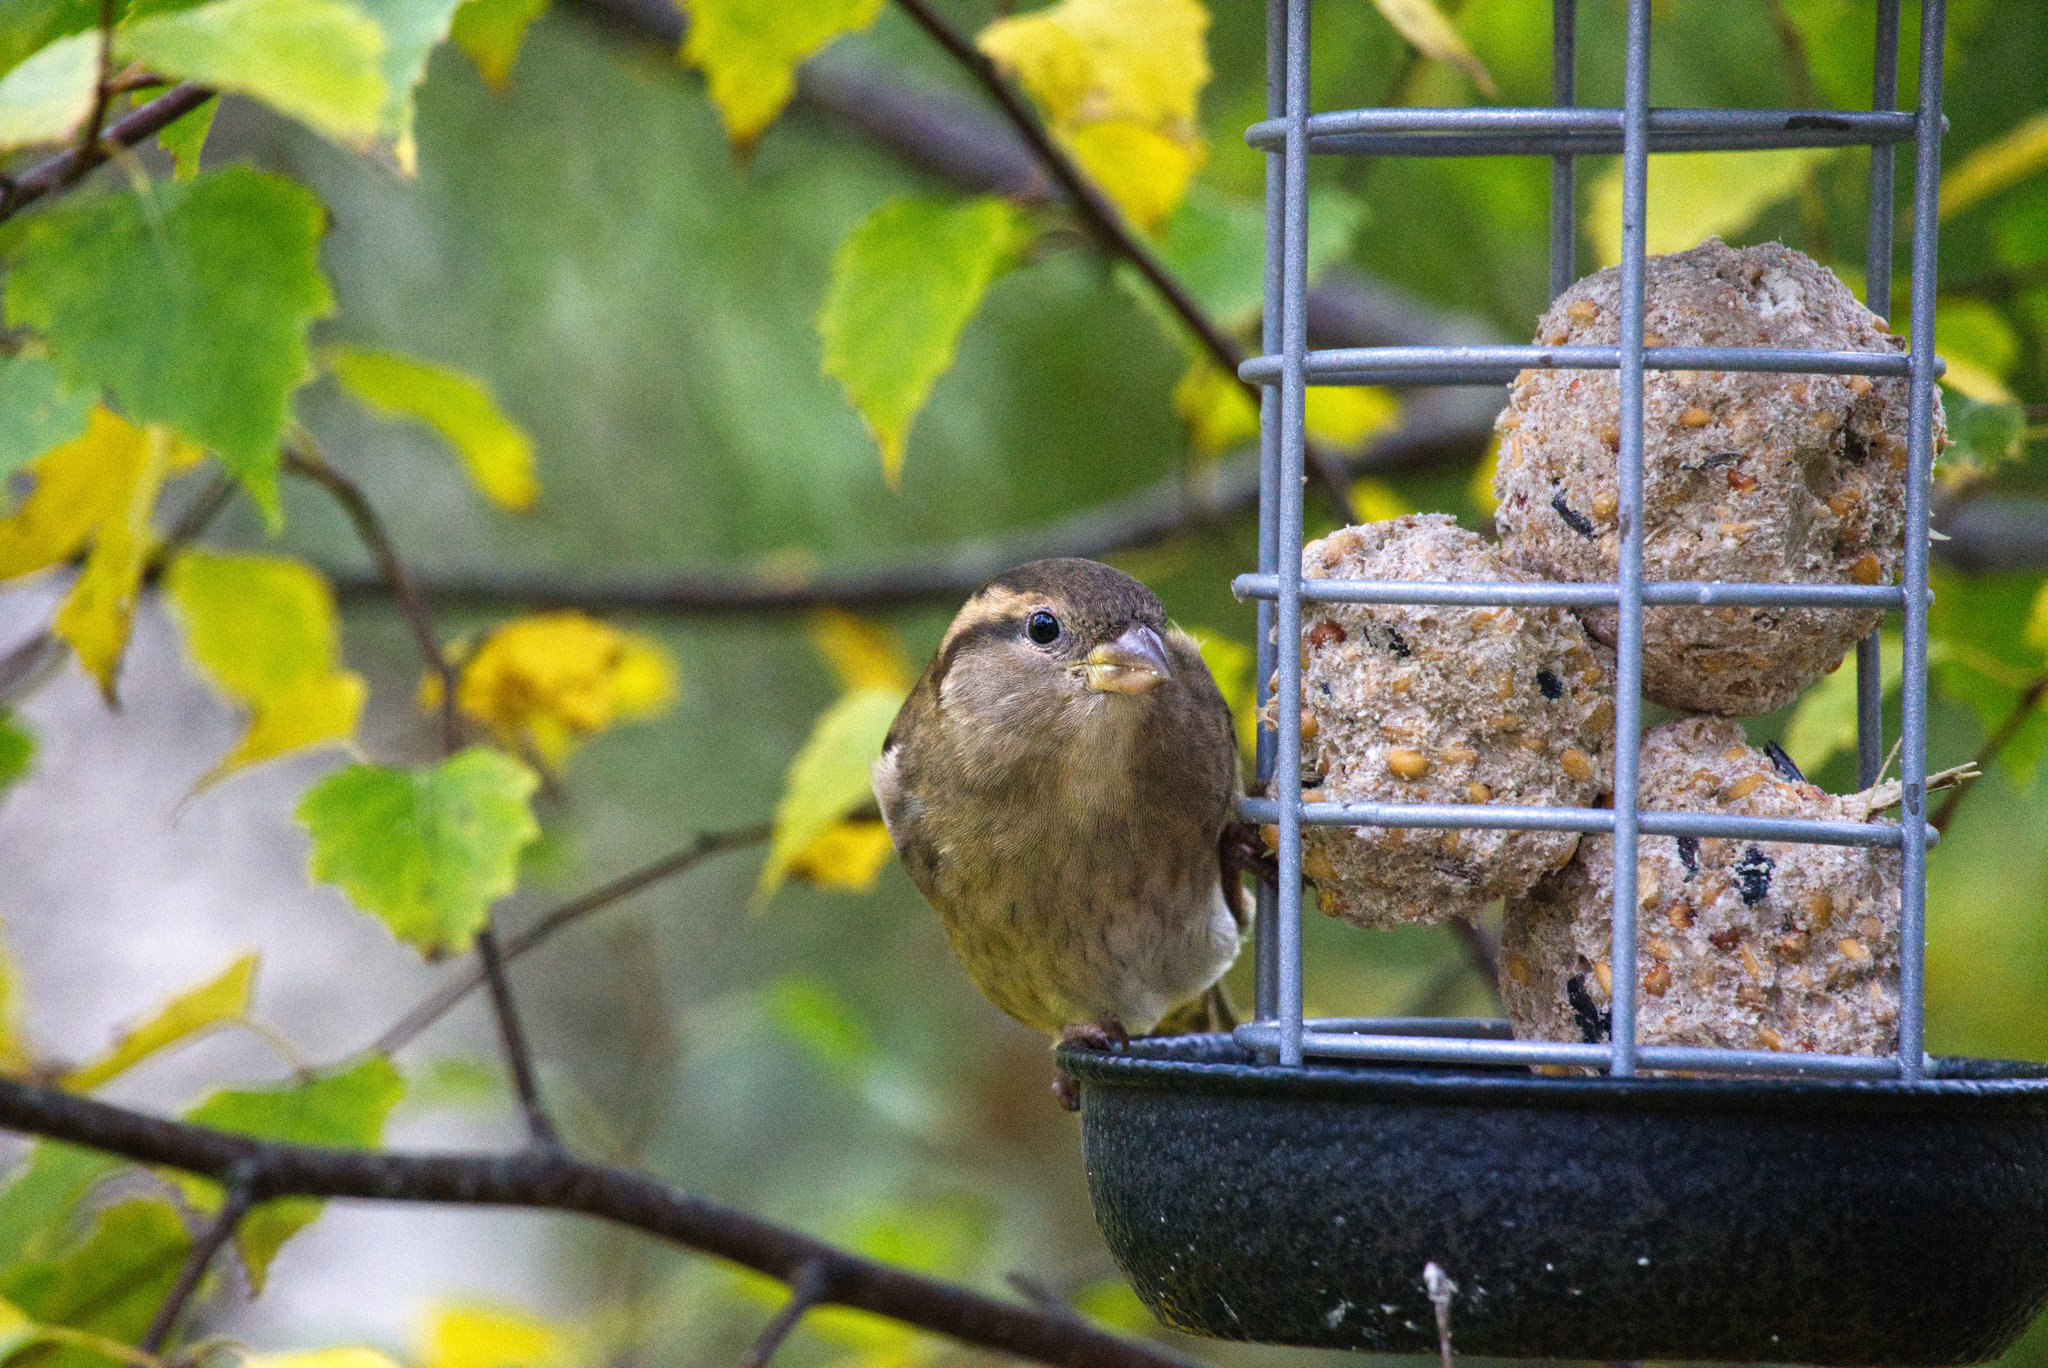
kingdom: Animalia
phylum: Chordata
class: Aves
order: Passeriformes
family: Passeridae
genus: Passer
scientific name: Passer domesticus
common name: House sparrow
